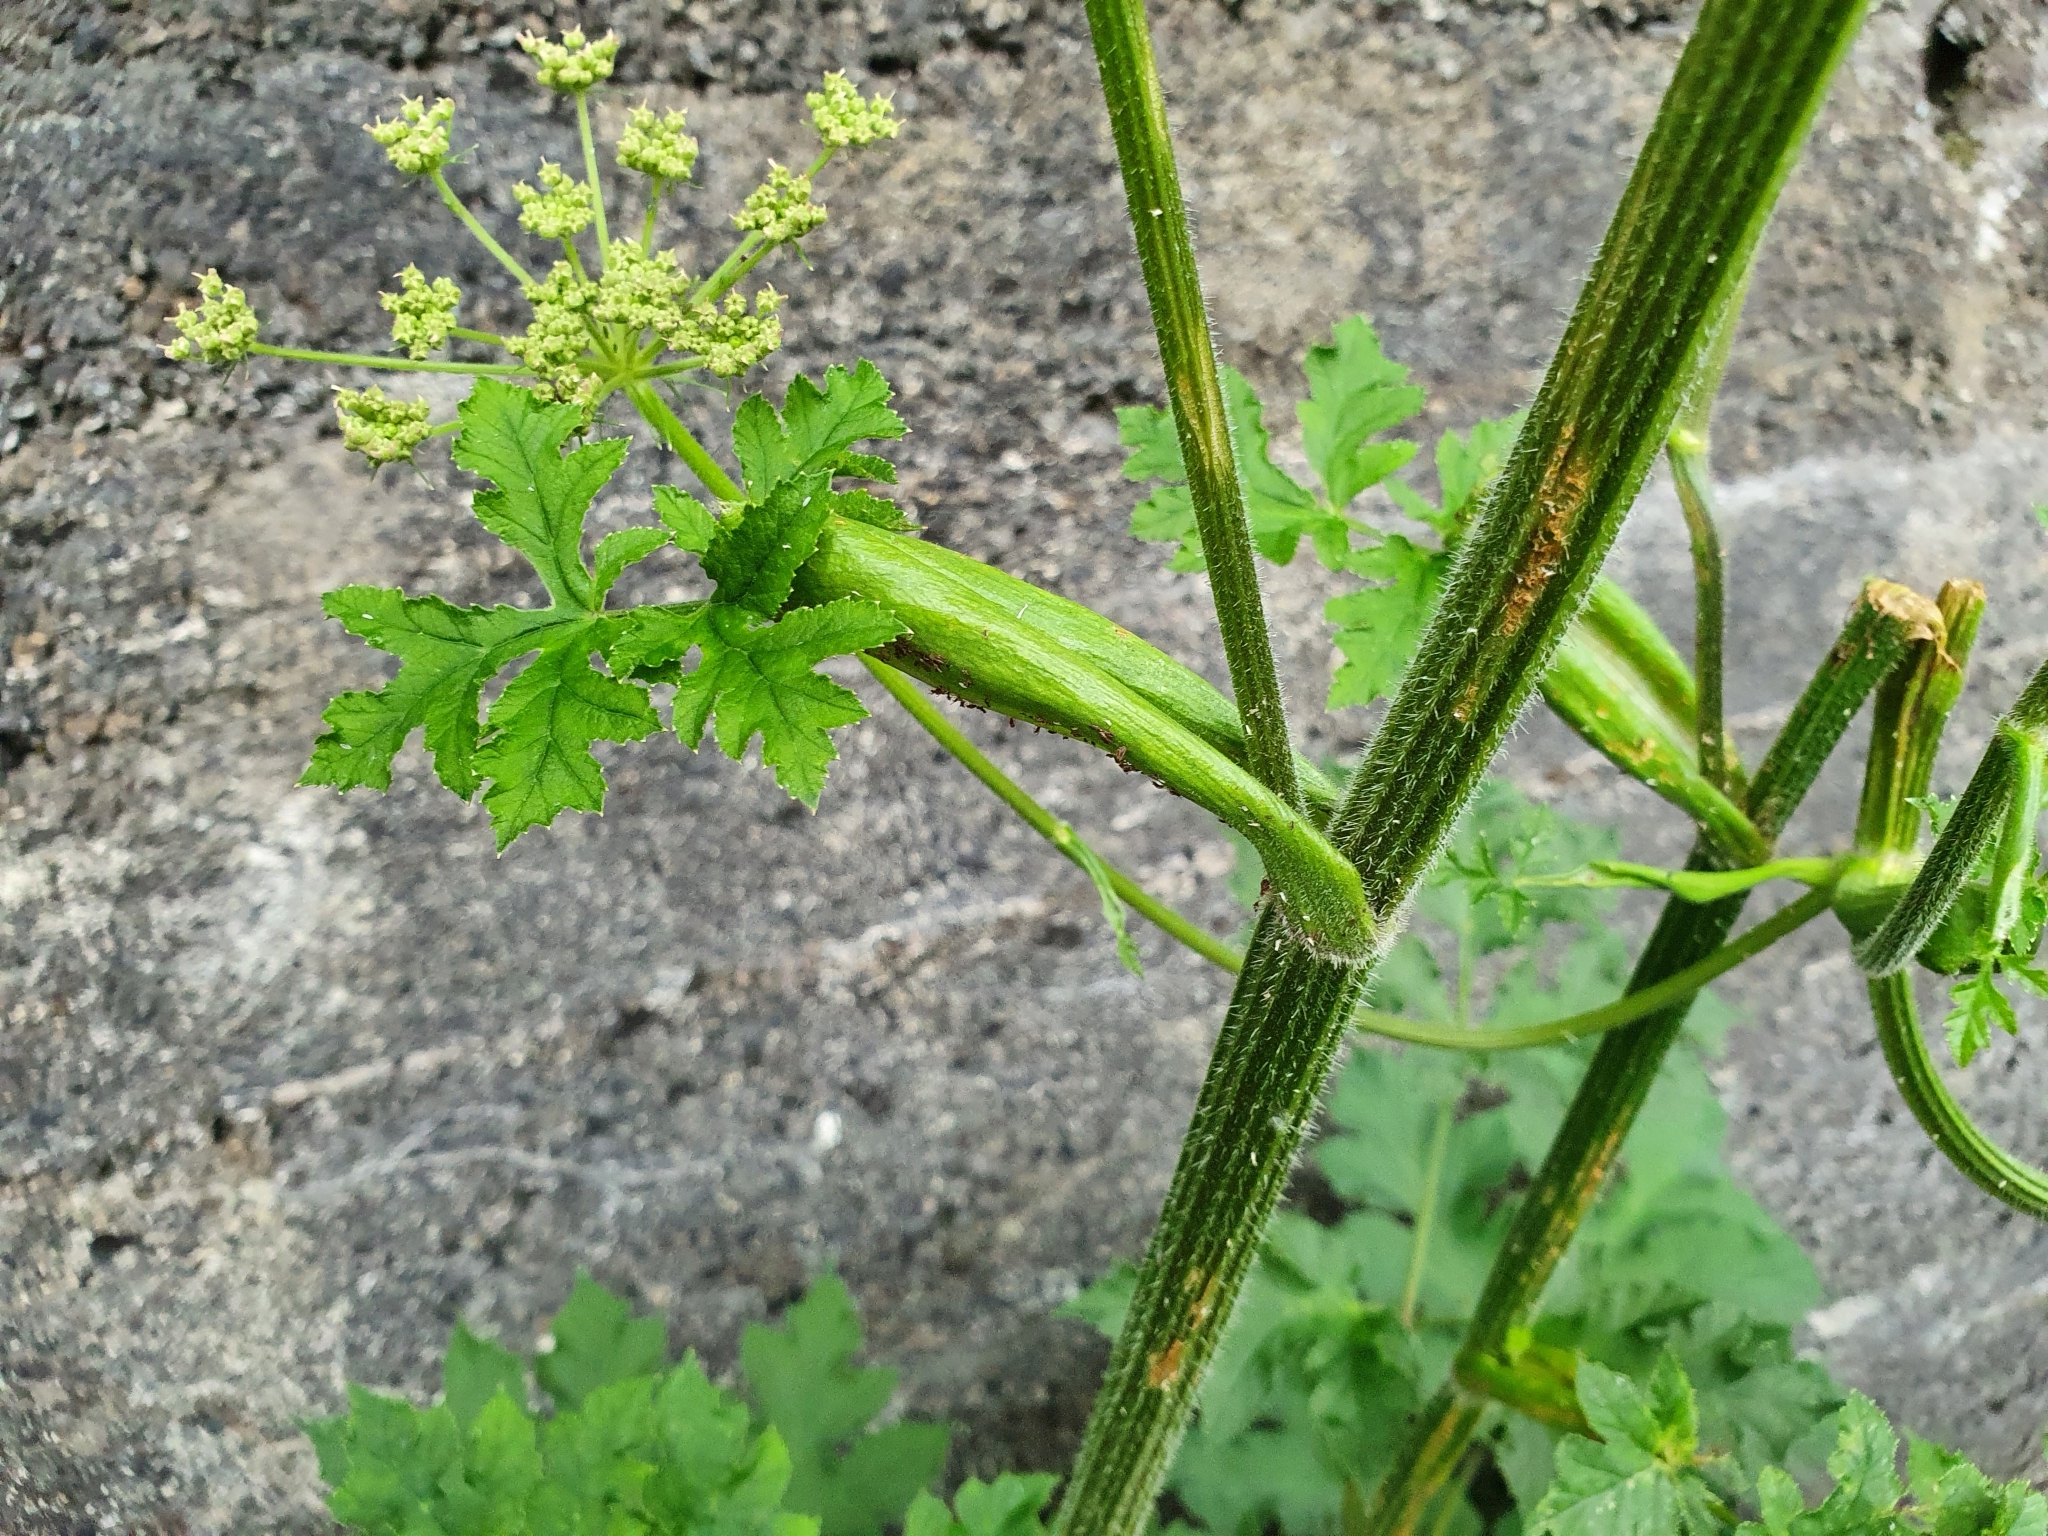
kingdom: Plantae
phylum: Tracheophyta
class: Magnoliopsida
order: Apiales
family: Apiaceae
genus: Heracleum
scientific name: Heracleum sphondylium
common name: Hogweed
